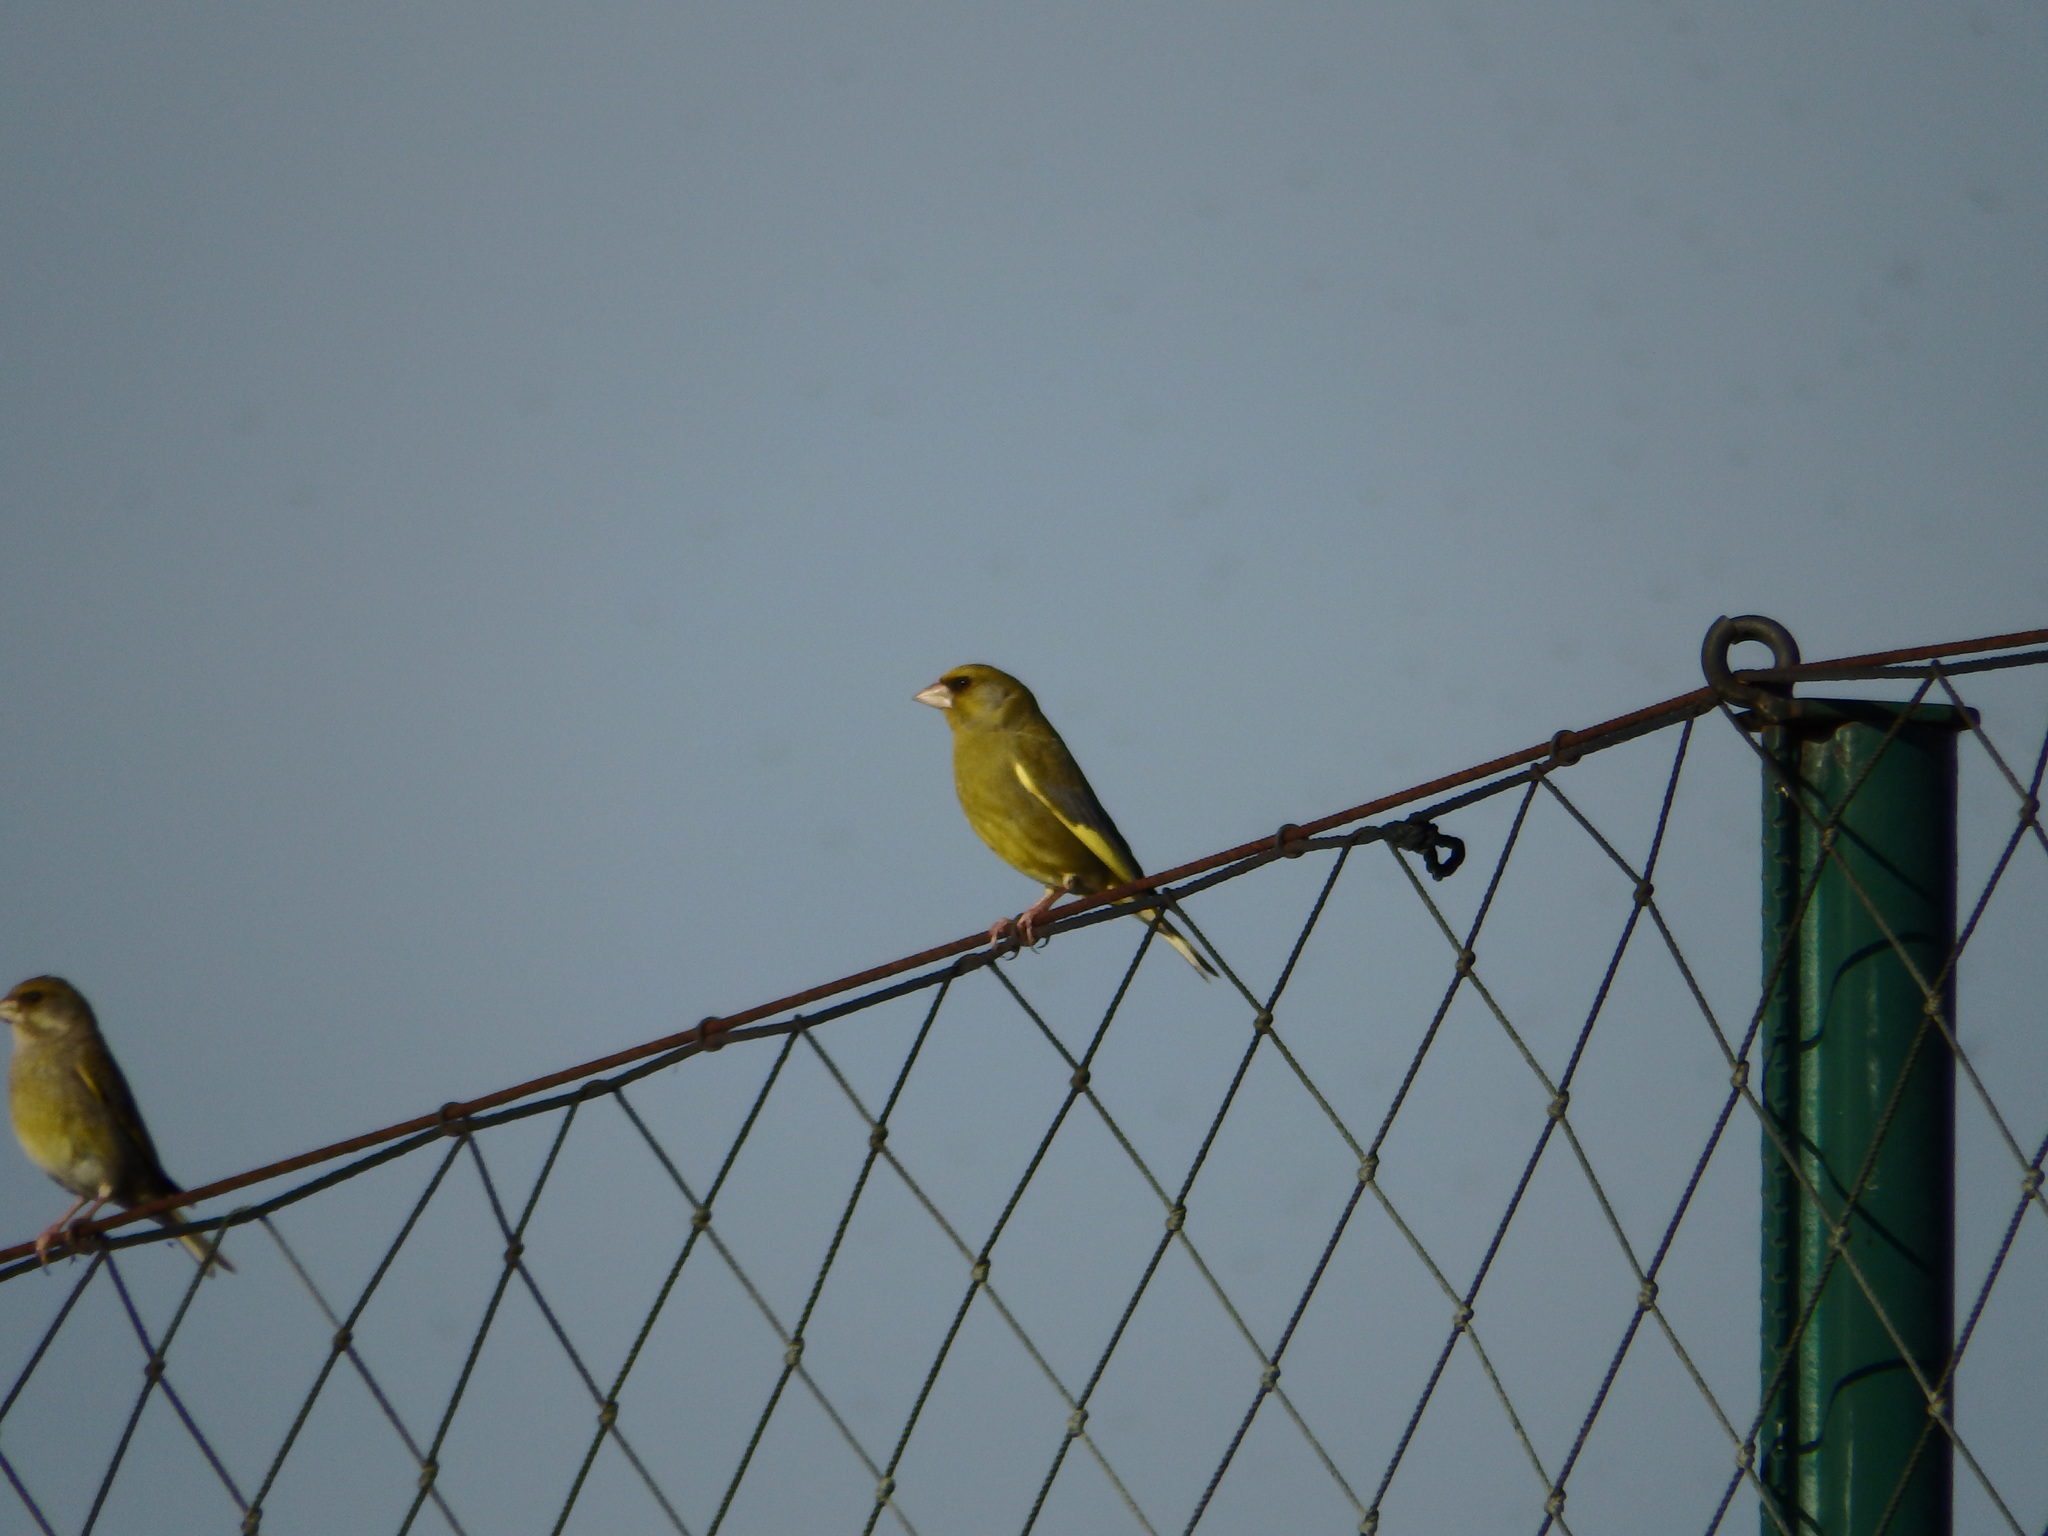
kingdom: Plantae
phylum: Tracheophyta
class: Liliopsida
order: Poales
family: Poaceae
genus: Chloris
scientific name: Chloris chloris
